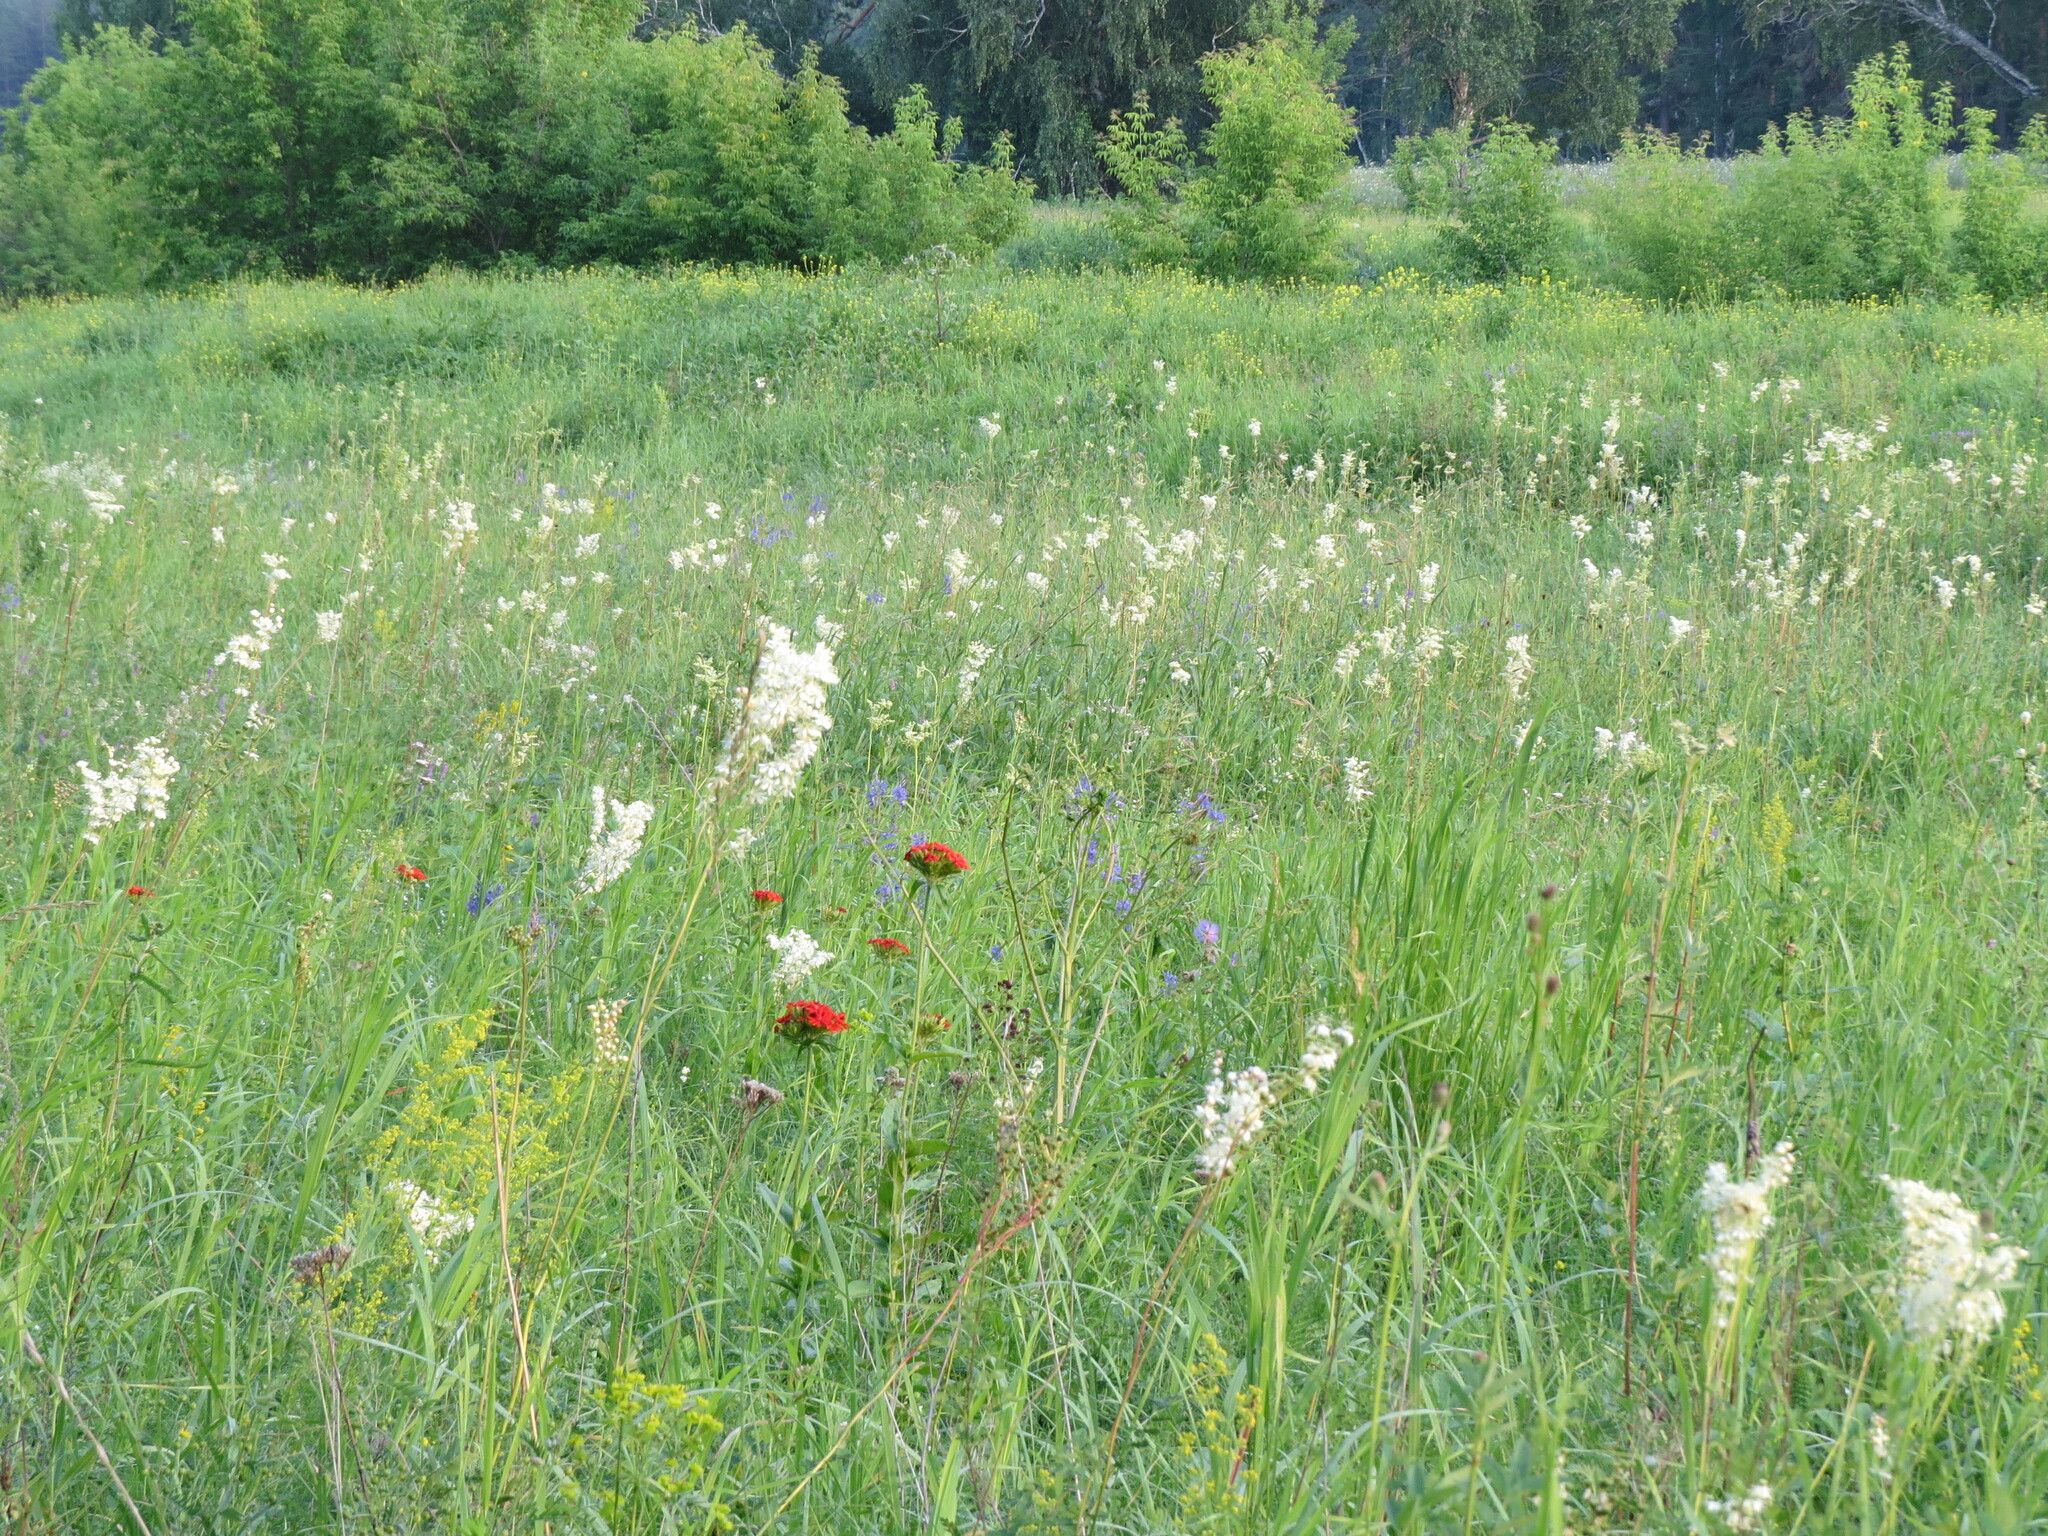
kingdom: Plantae
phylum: Tracheophyta
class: Magnoliopsida
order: Caryophyllales
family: Caryophyllaceae
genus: Silene
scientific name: Silene chalcedonica
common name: Maltese-cross
